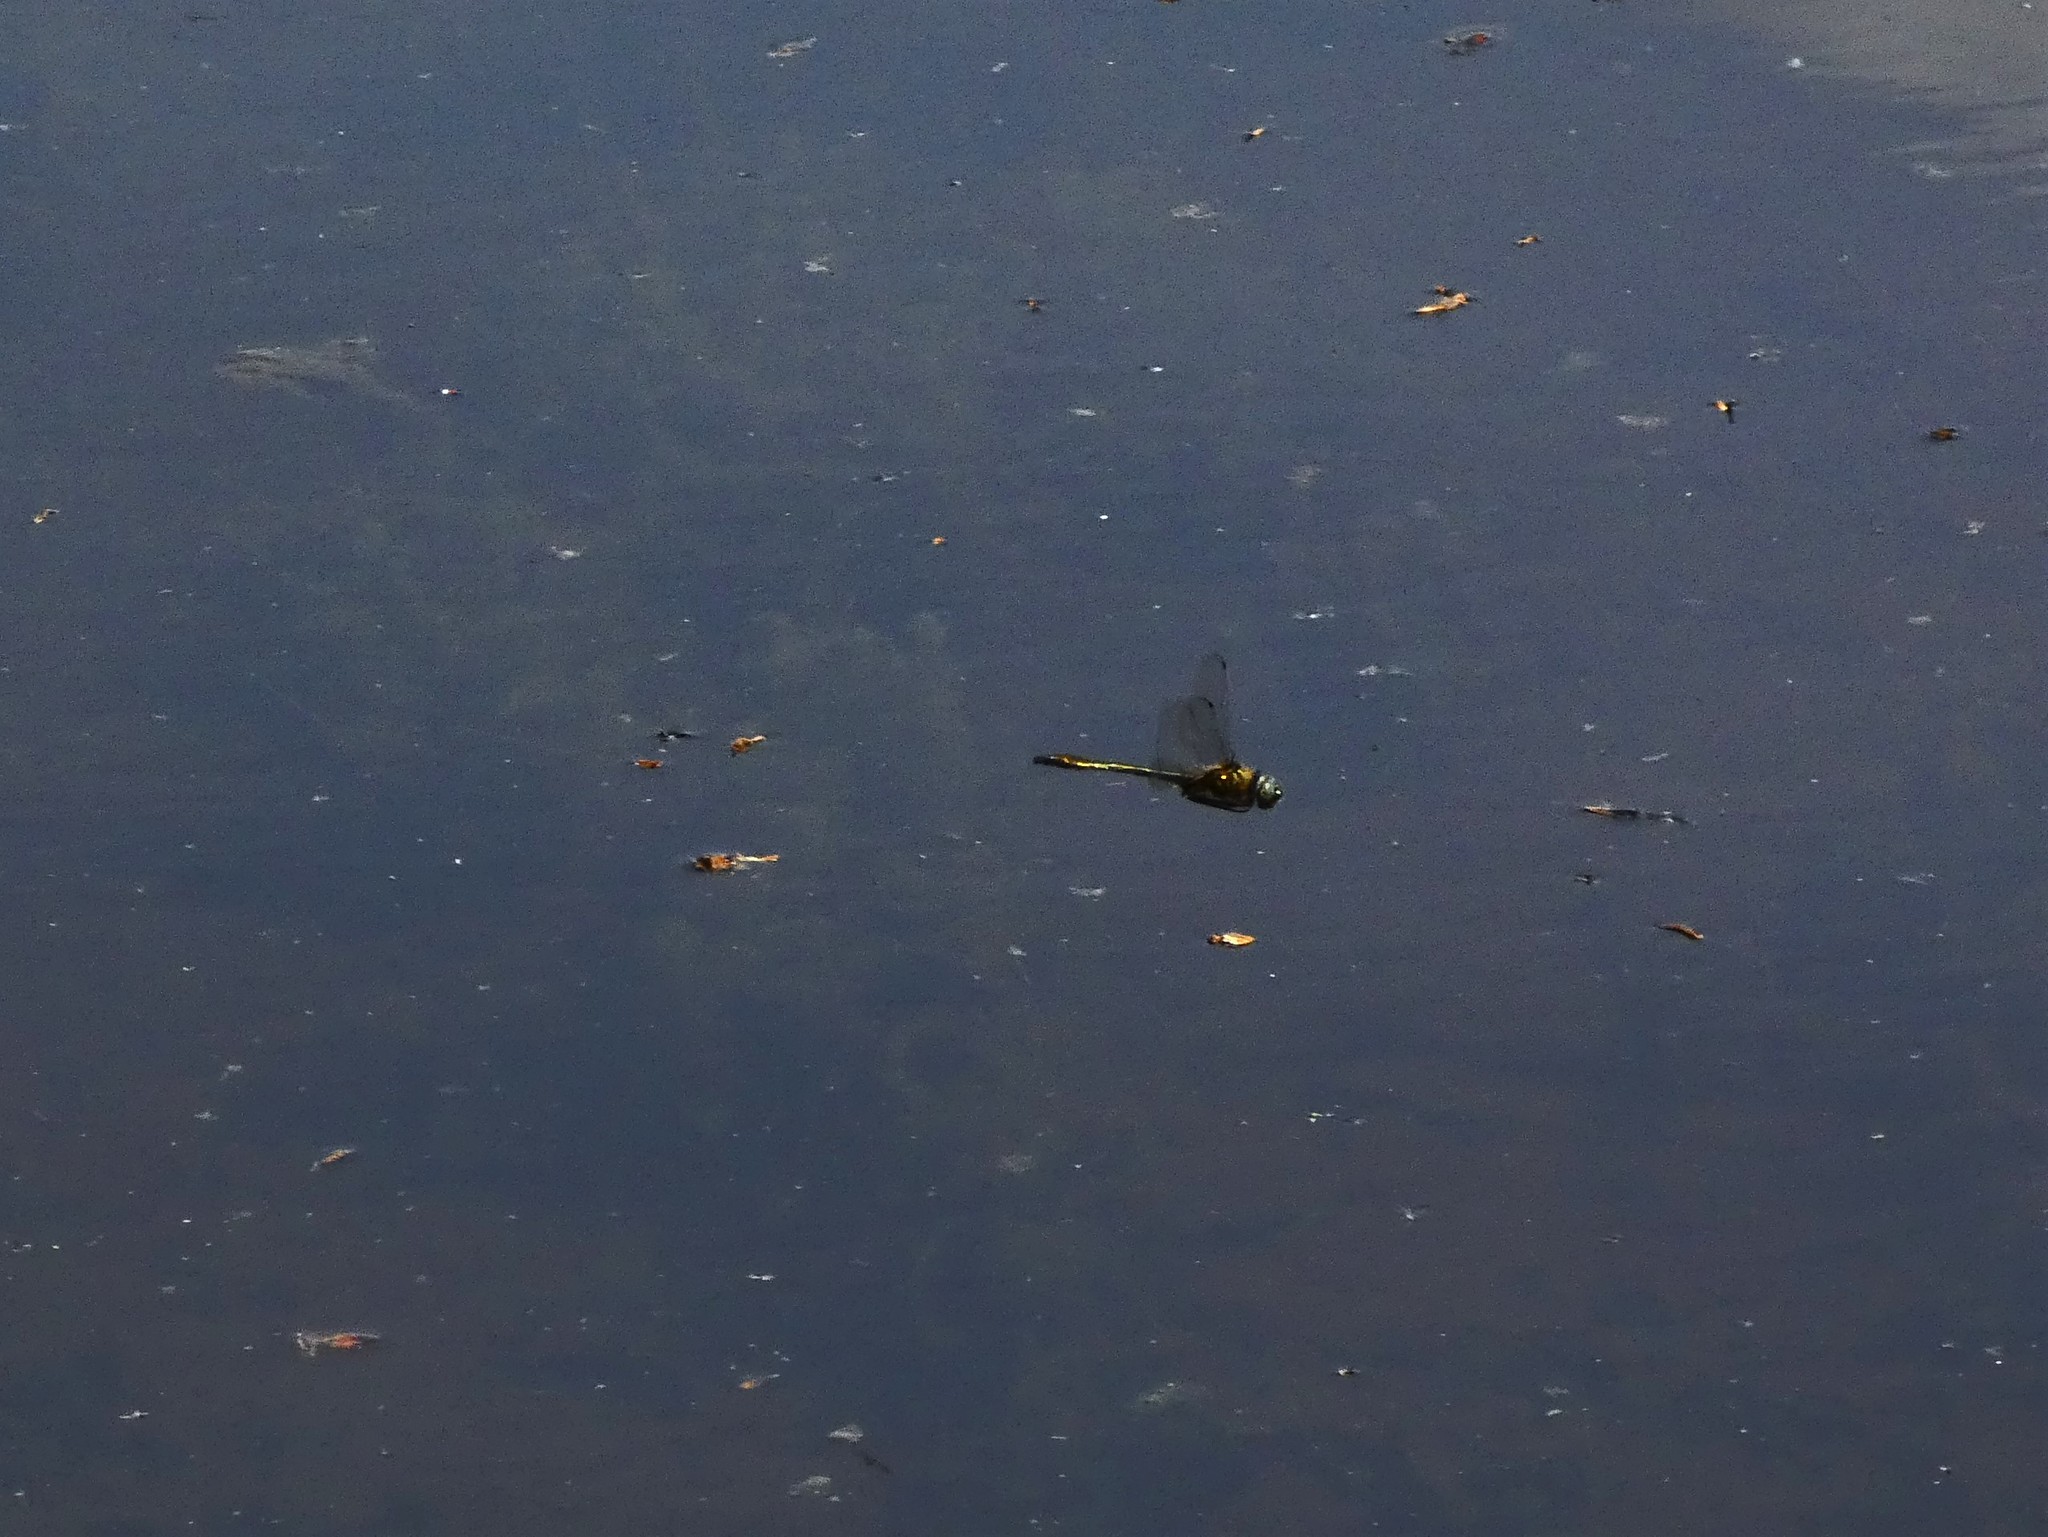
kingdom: Animalia
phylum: Arthropoda
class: Insecta
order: Odonata
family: Corduliidae
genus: Cordulia
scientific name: Cordulia aenea
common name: Downy emerald
